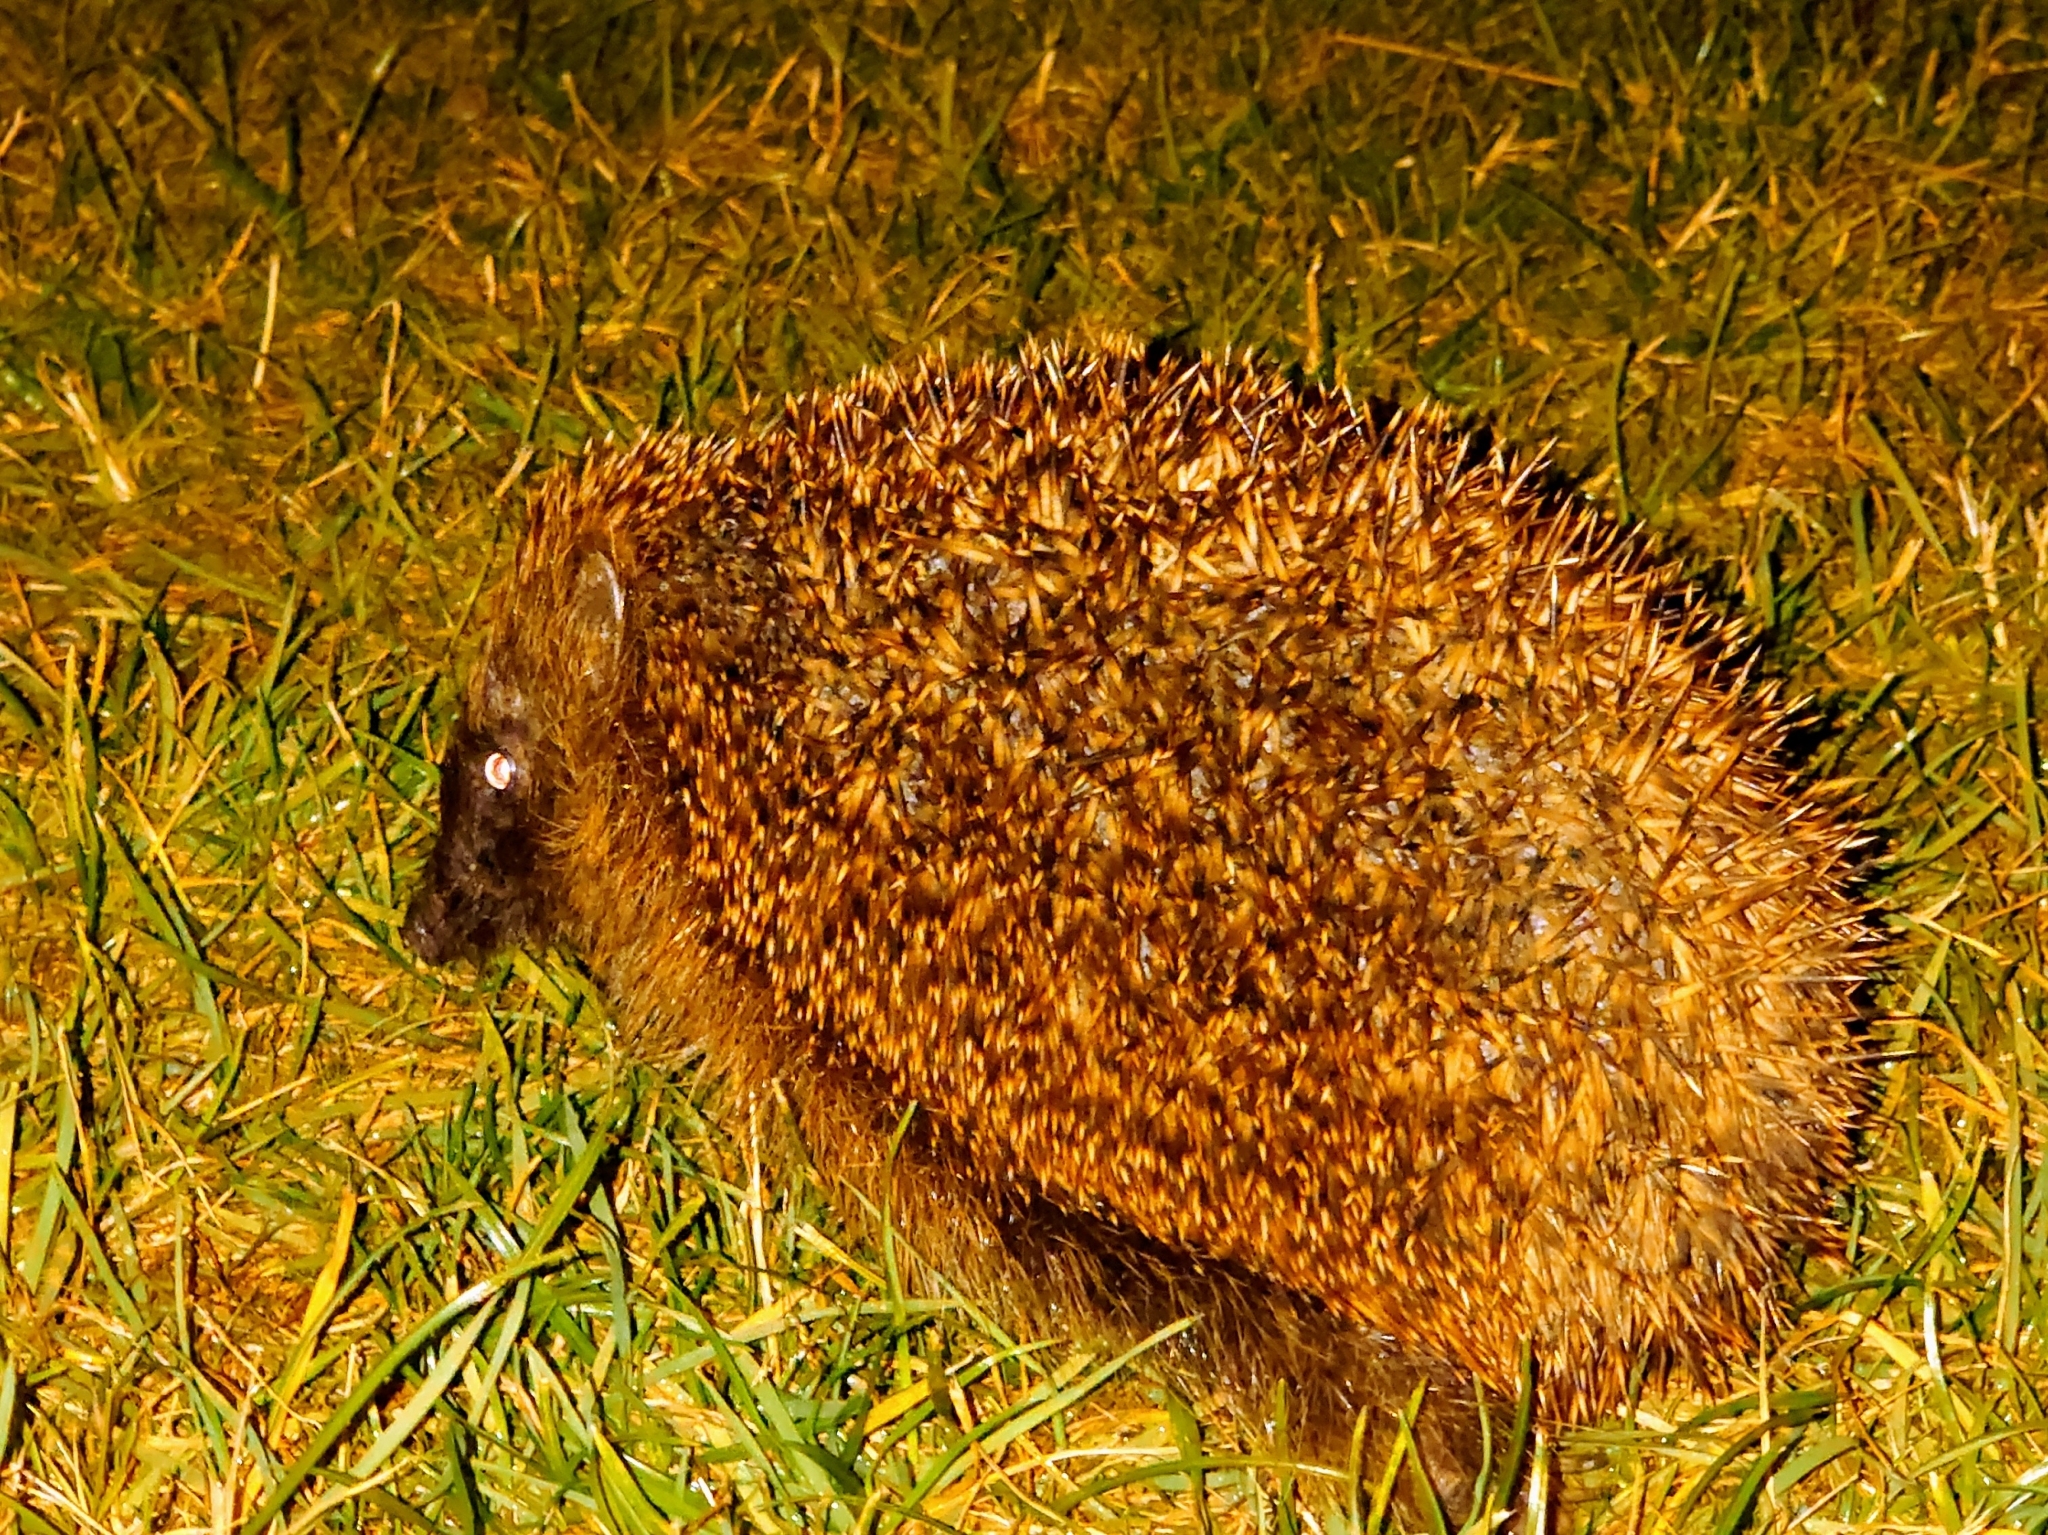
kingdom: Animalia
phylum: Chordata
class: Mammalia
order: Erinaceomorpha
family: Erinaceidae
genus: Erinaceus
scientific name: Erinaceus europaeus
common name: West european hedgehog
